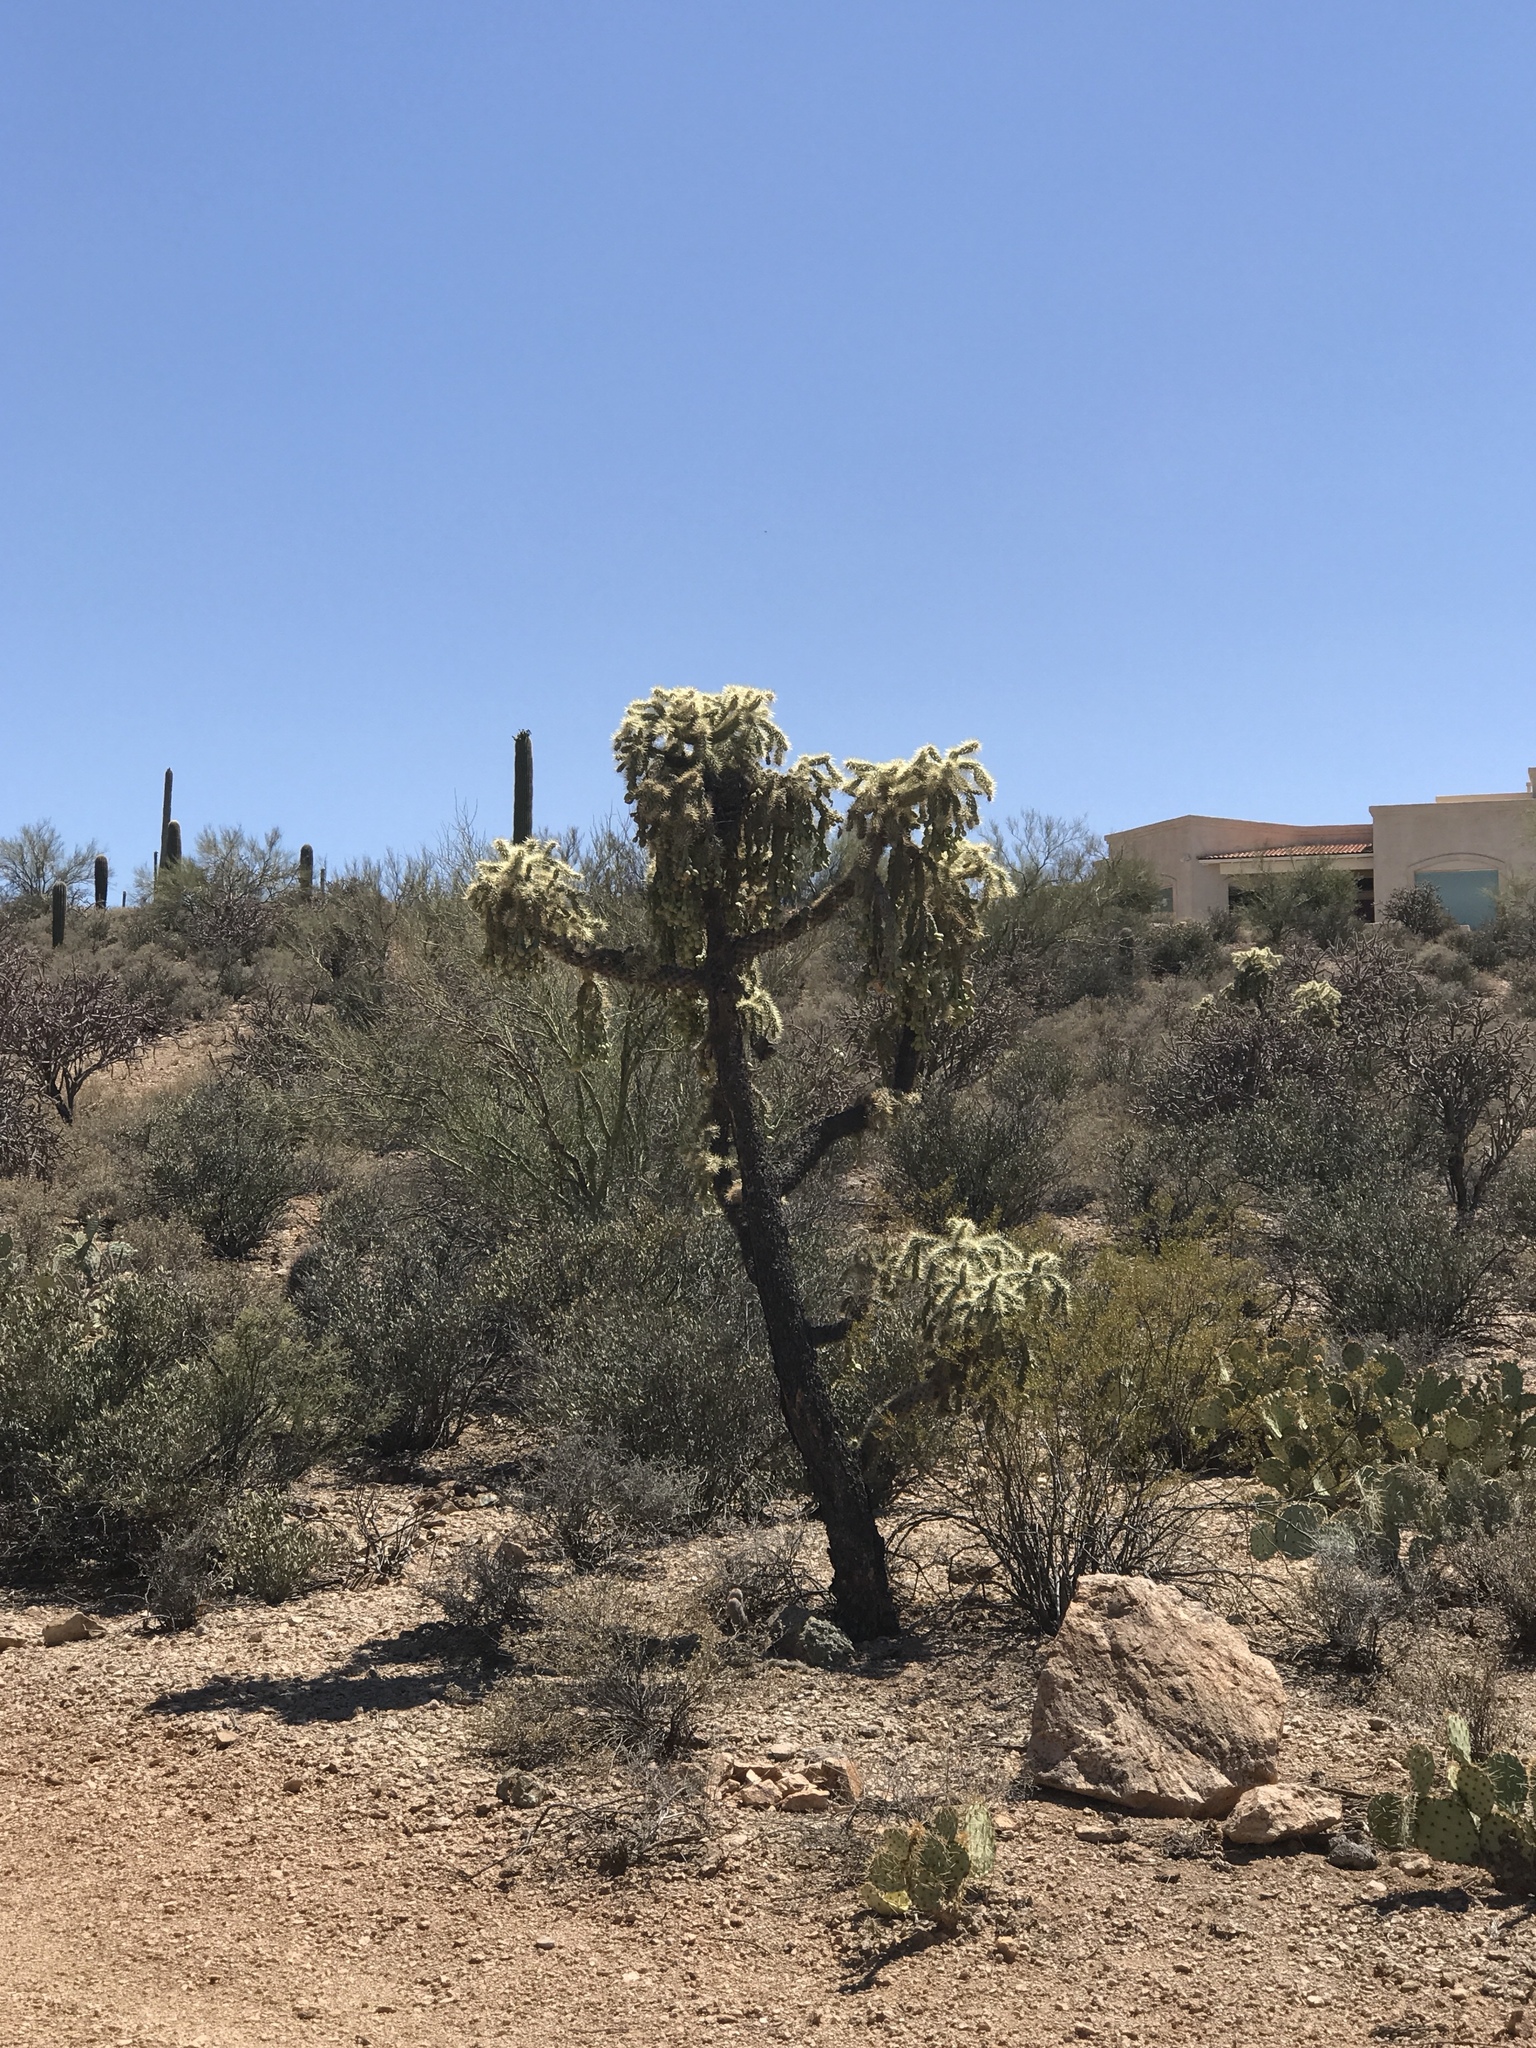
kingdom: Plantae
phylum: Tracheophyta
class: Magnoliopsida
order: Caryophyllales
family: Cactaceae
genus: Cylindropuntia
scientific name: Cylindropuntia fulgida
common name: Jumping cholla
